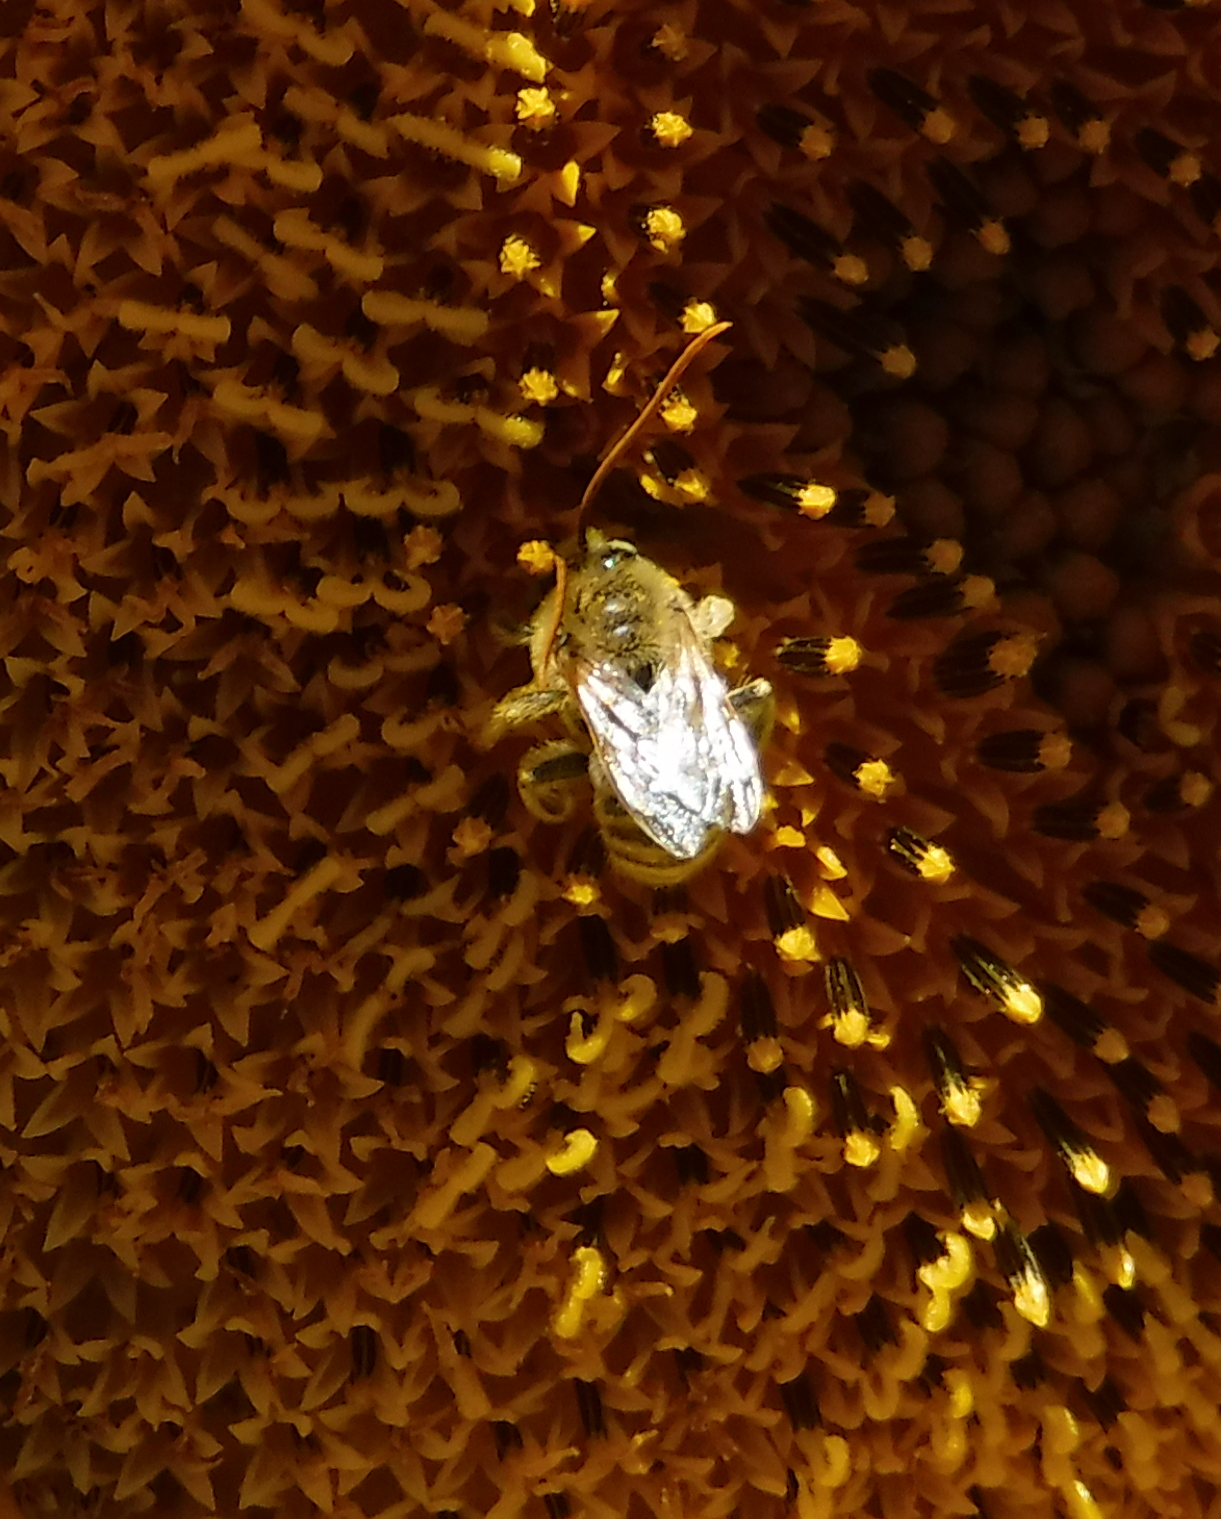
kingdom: Animalia
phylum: Arthropoda
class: Insecta
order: Hymenoptera
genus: Eumelissodes
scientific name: Eumelissodes
